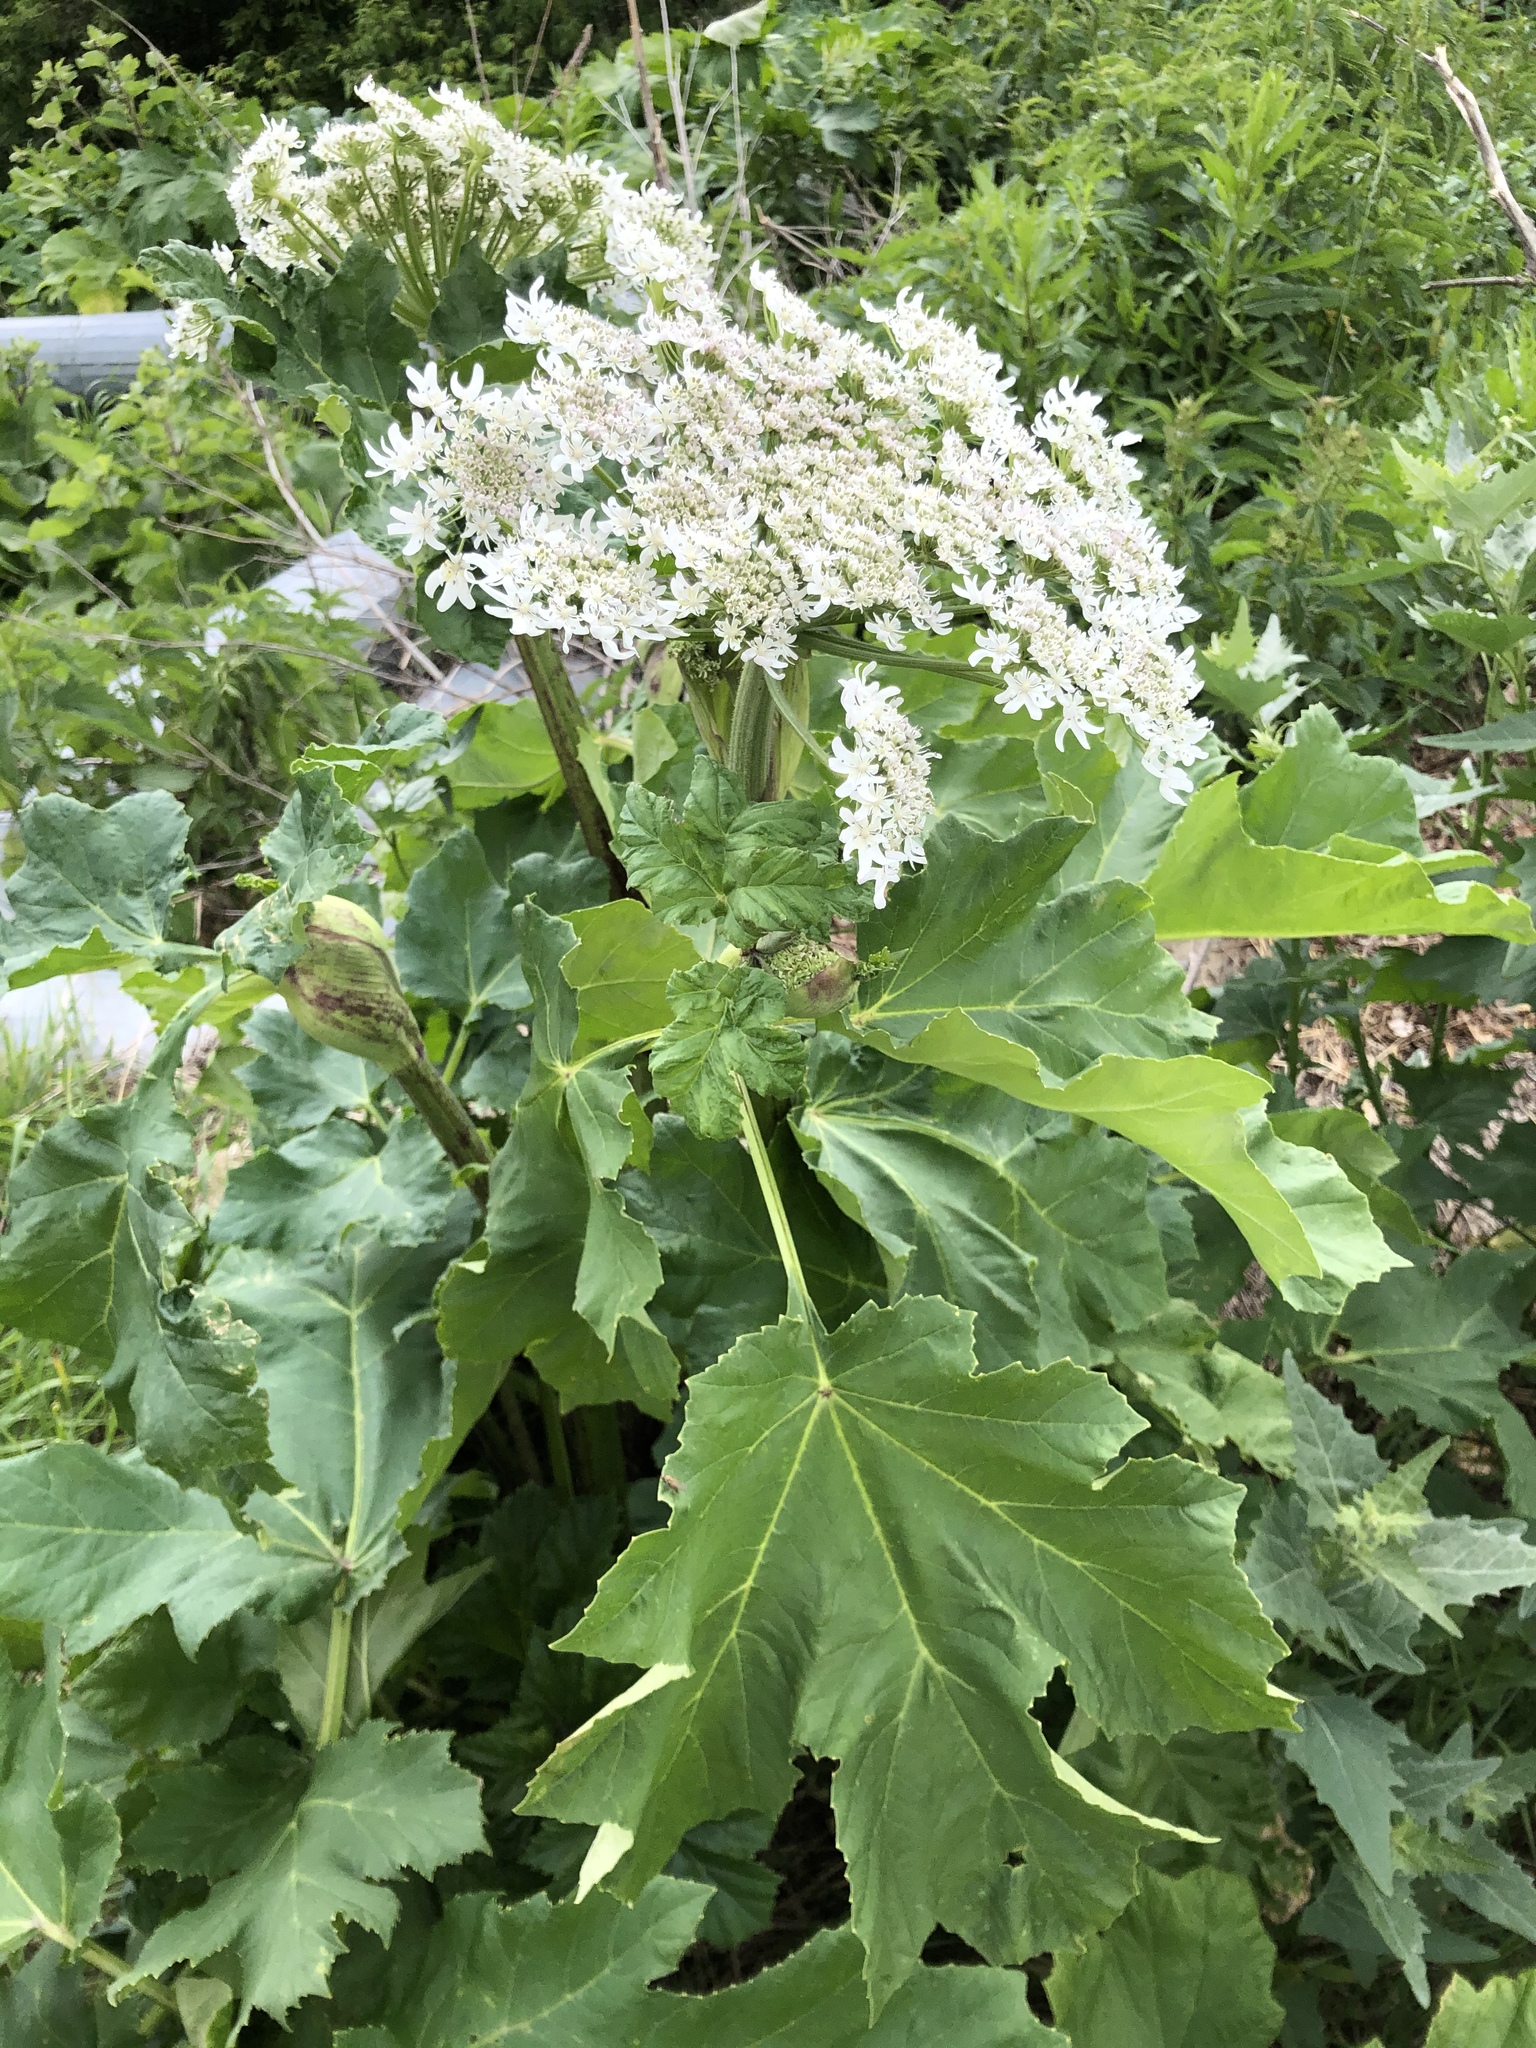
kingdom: Plantae
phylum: Tracheophyta
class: Magnoliopsida
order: Apiales
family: Apiaceae
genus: Heracleum
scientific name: Heracleum sosnowskyi
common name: Sosnowsky's hogweed
